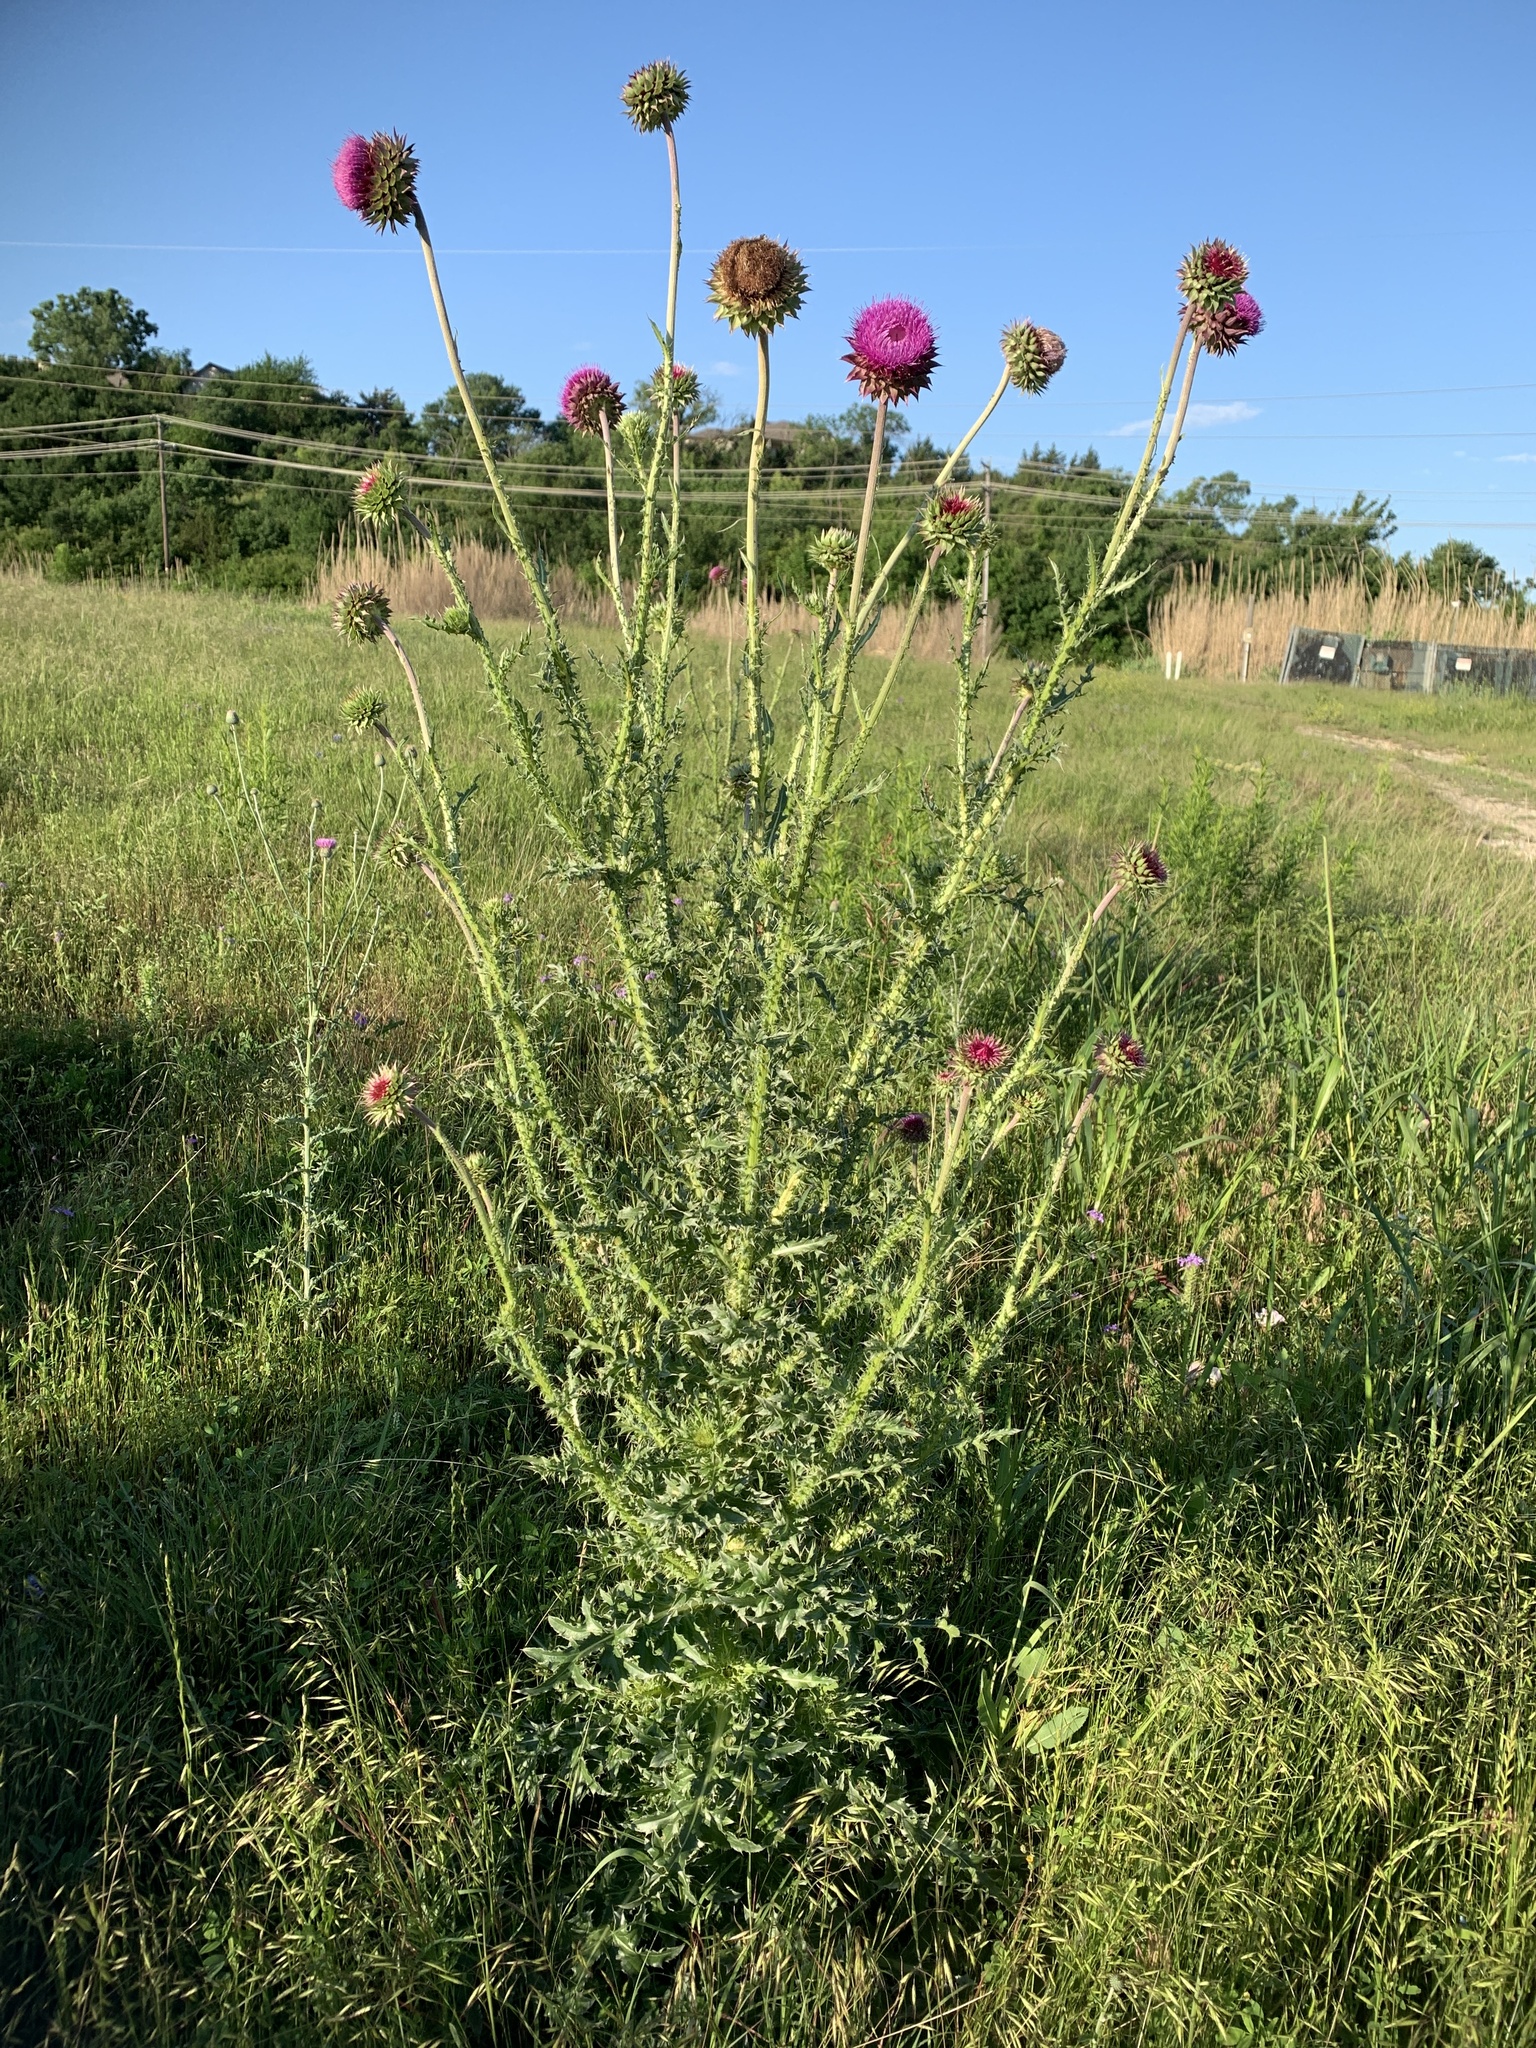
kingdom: Plantae
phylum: Tracheophyta
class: Magnoliopsida
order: Asterales
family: Asteraceae
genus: Carduus
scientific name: Carduus nutans
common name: Musk thistle
